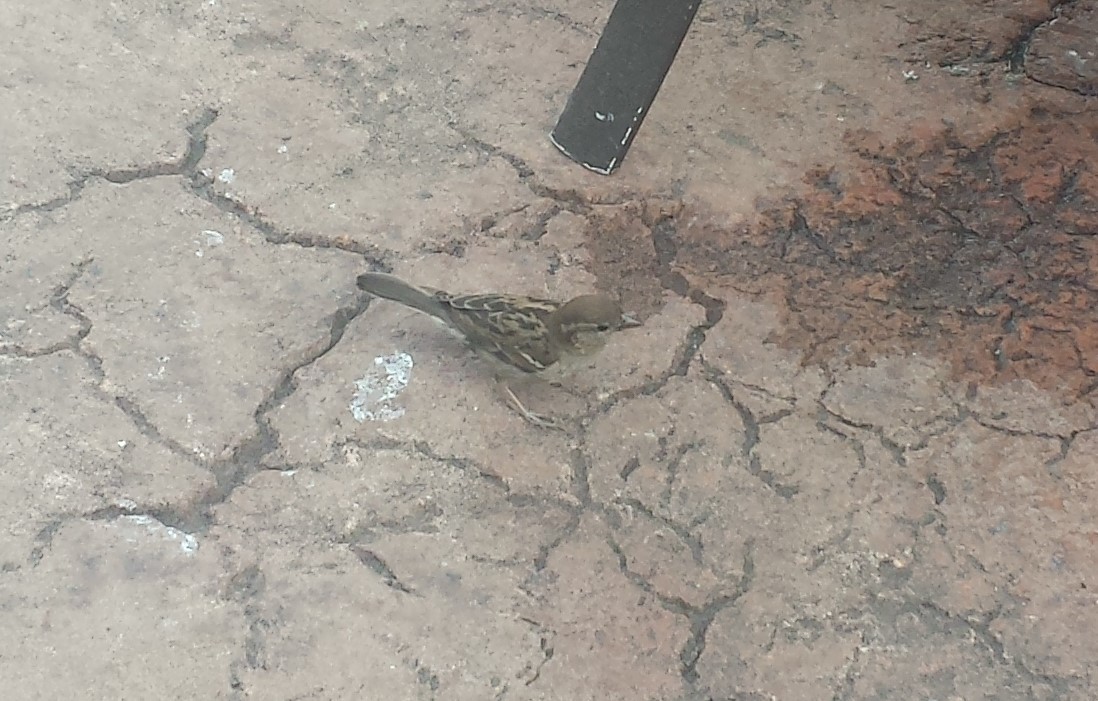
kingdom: Animalia
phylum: Chordata
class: Aves
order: Passeriformes
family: Passeridae
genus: Passer
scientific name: Passer domesticus
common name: House sparrow
